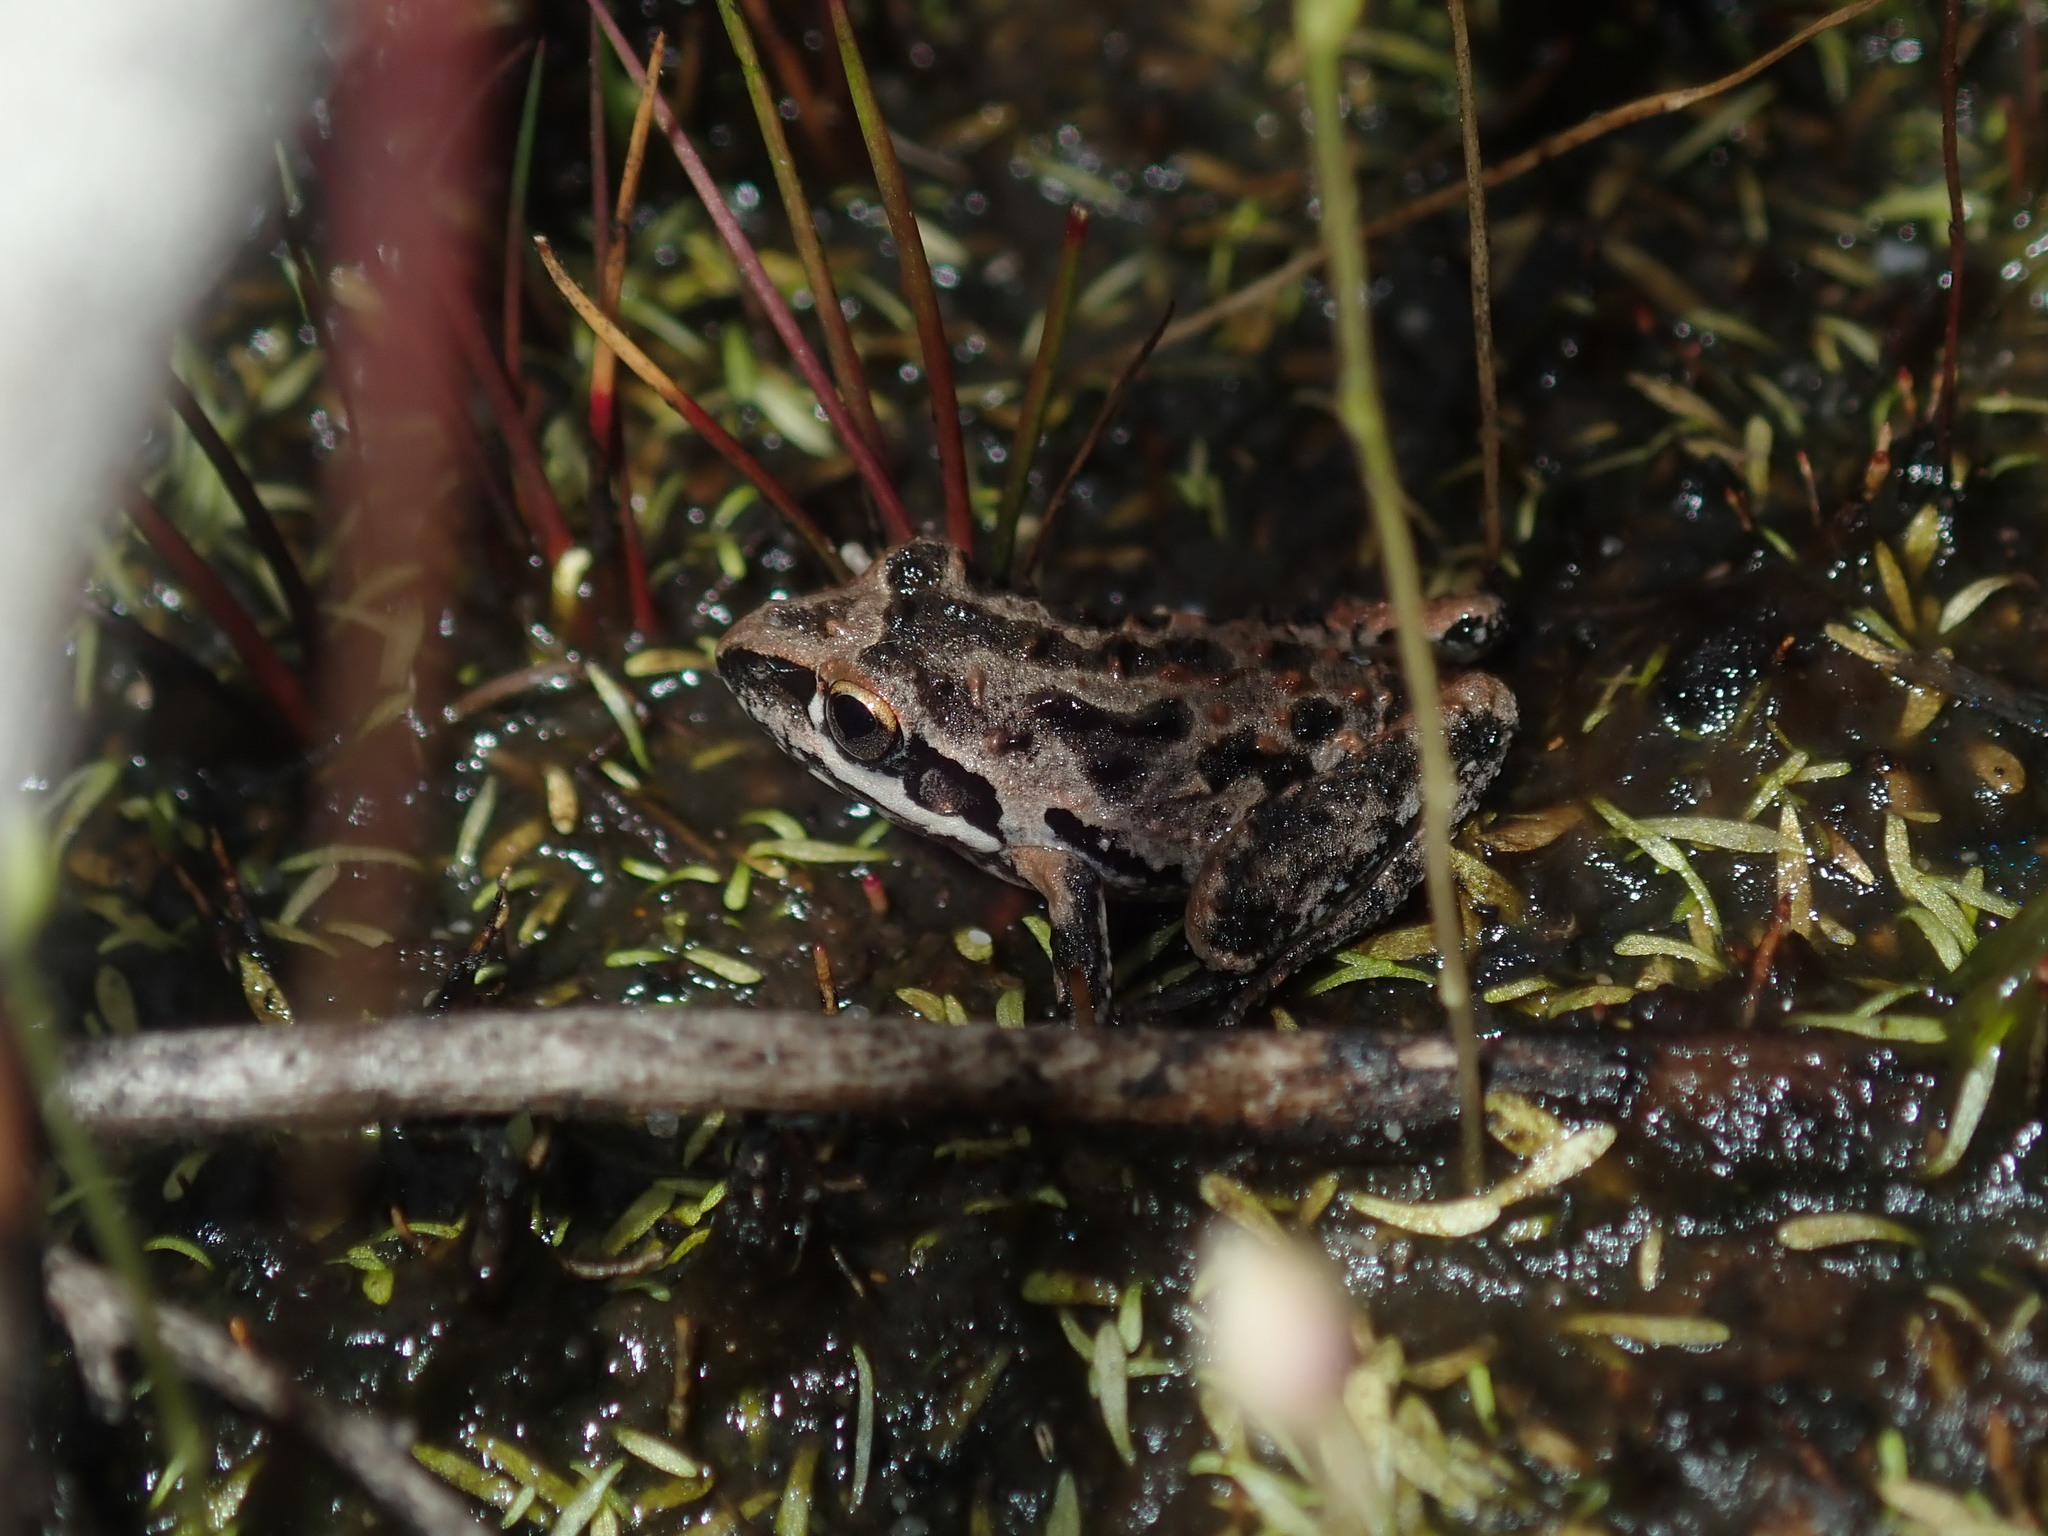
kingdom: Animalia
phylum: Chordata
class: Amphibia
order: Anura
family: Pelodryadidae
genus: Litoria
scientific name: Litoria freycineti
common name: Freycinet’s frog
